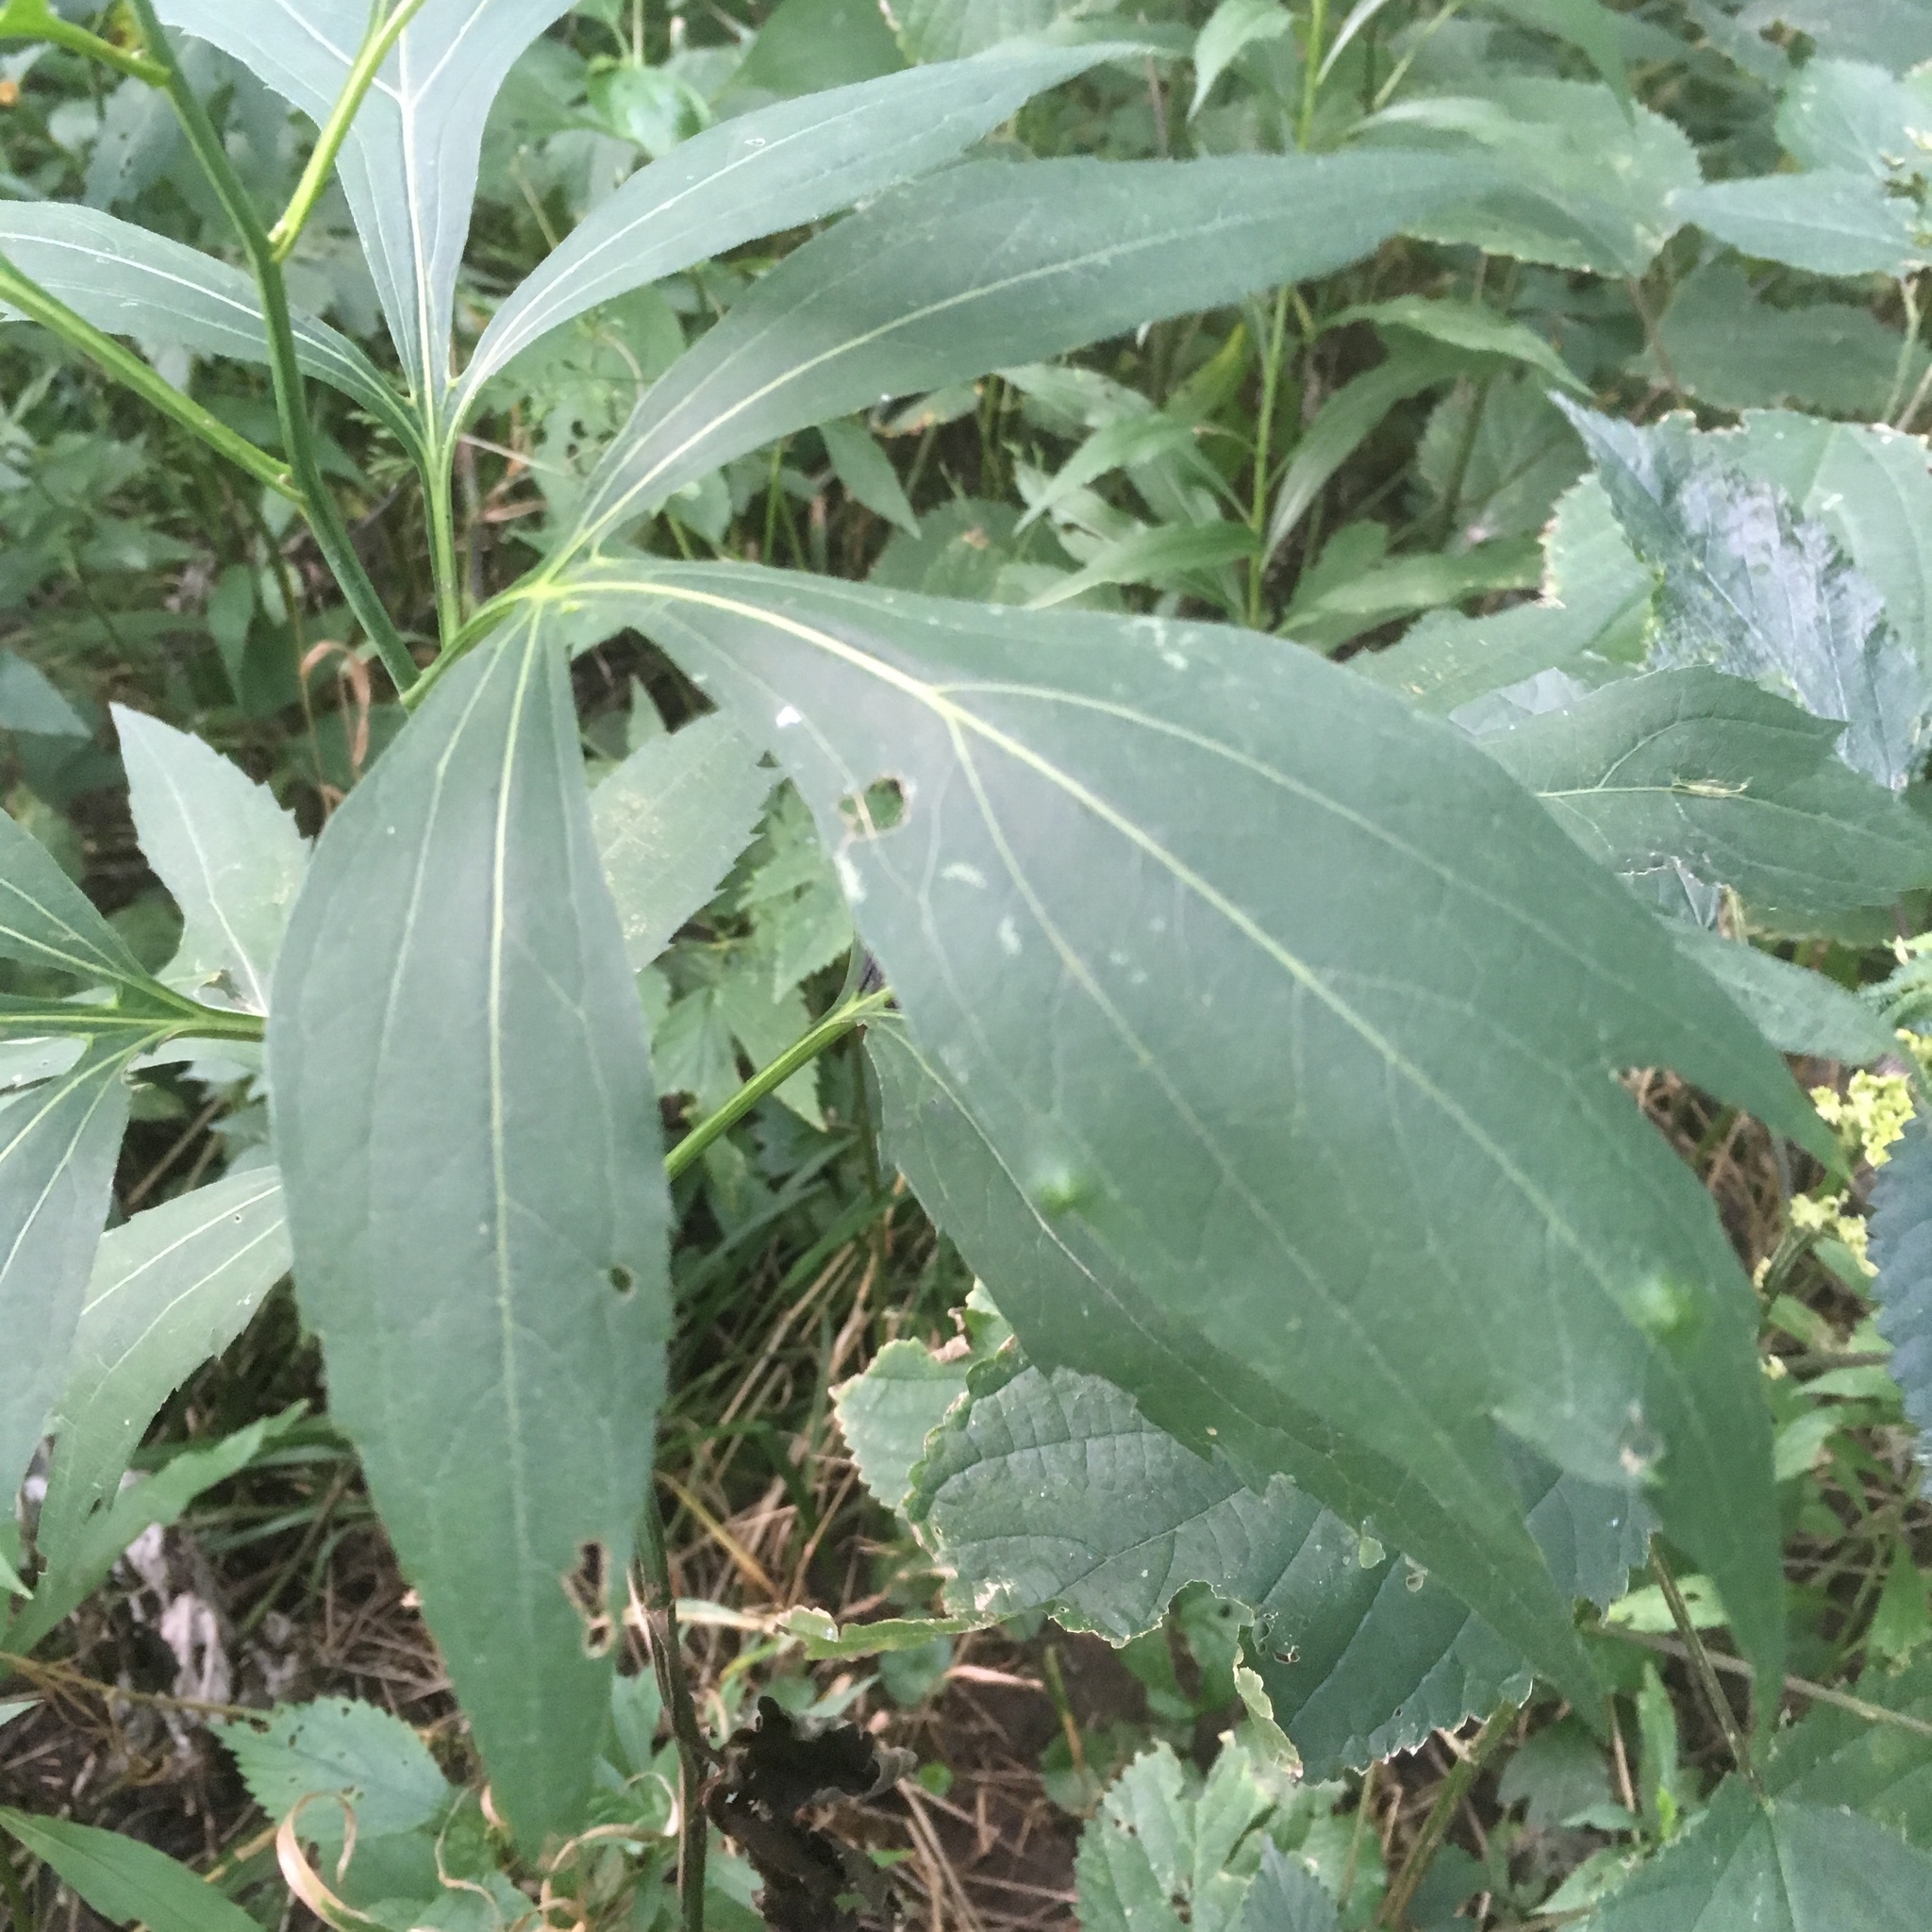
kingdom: Plantae
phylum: Tracheophyta
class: Magnoliopsida
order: Asterales
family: Asteraceae
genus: Rudbeckia
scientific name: Rudbeckia laciniata
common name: Coneflower
